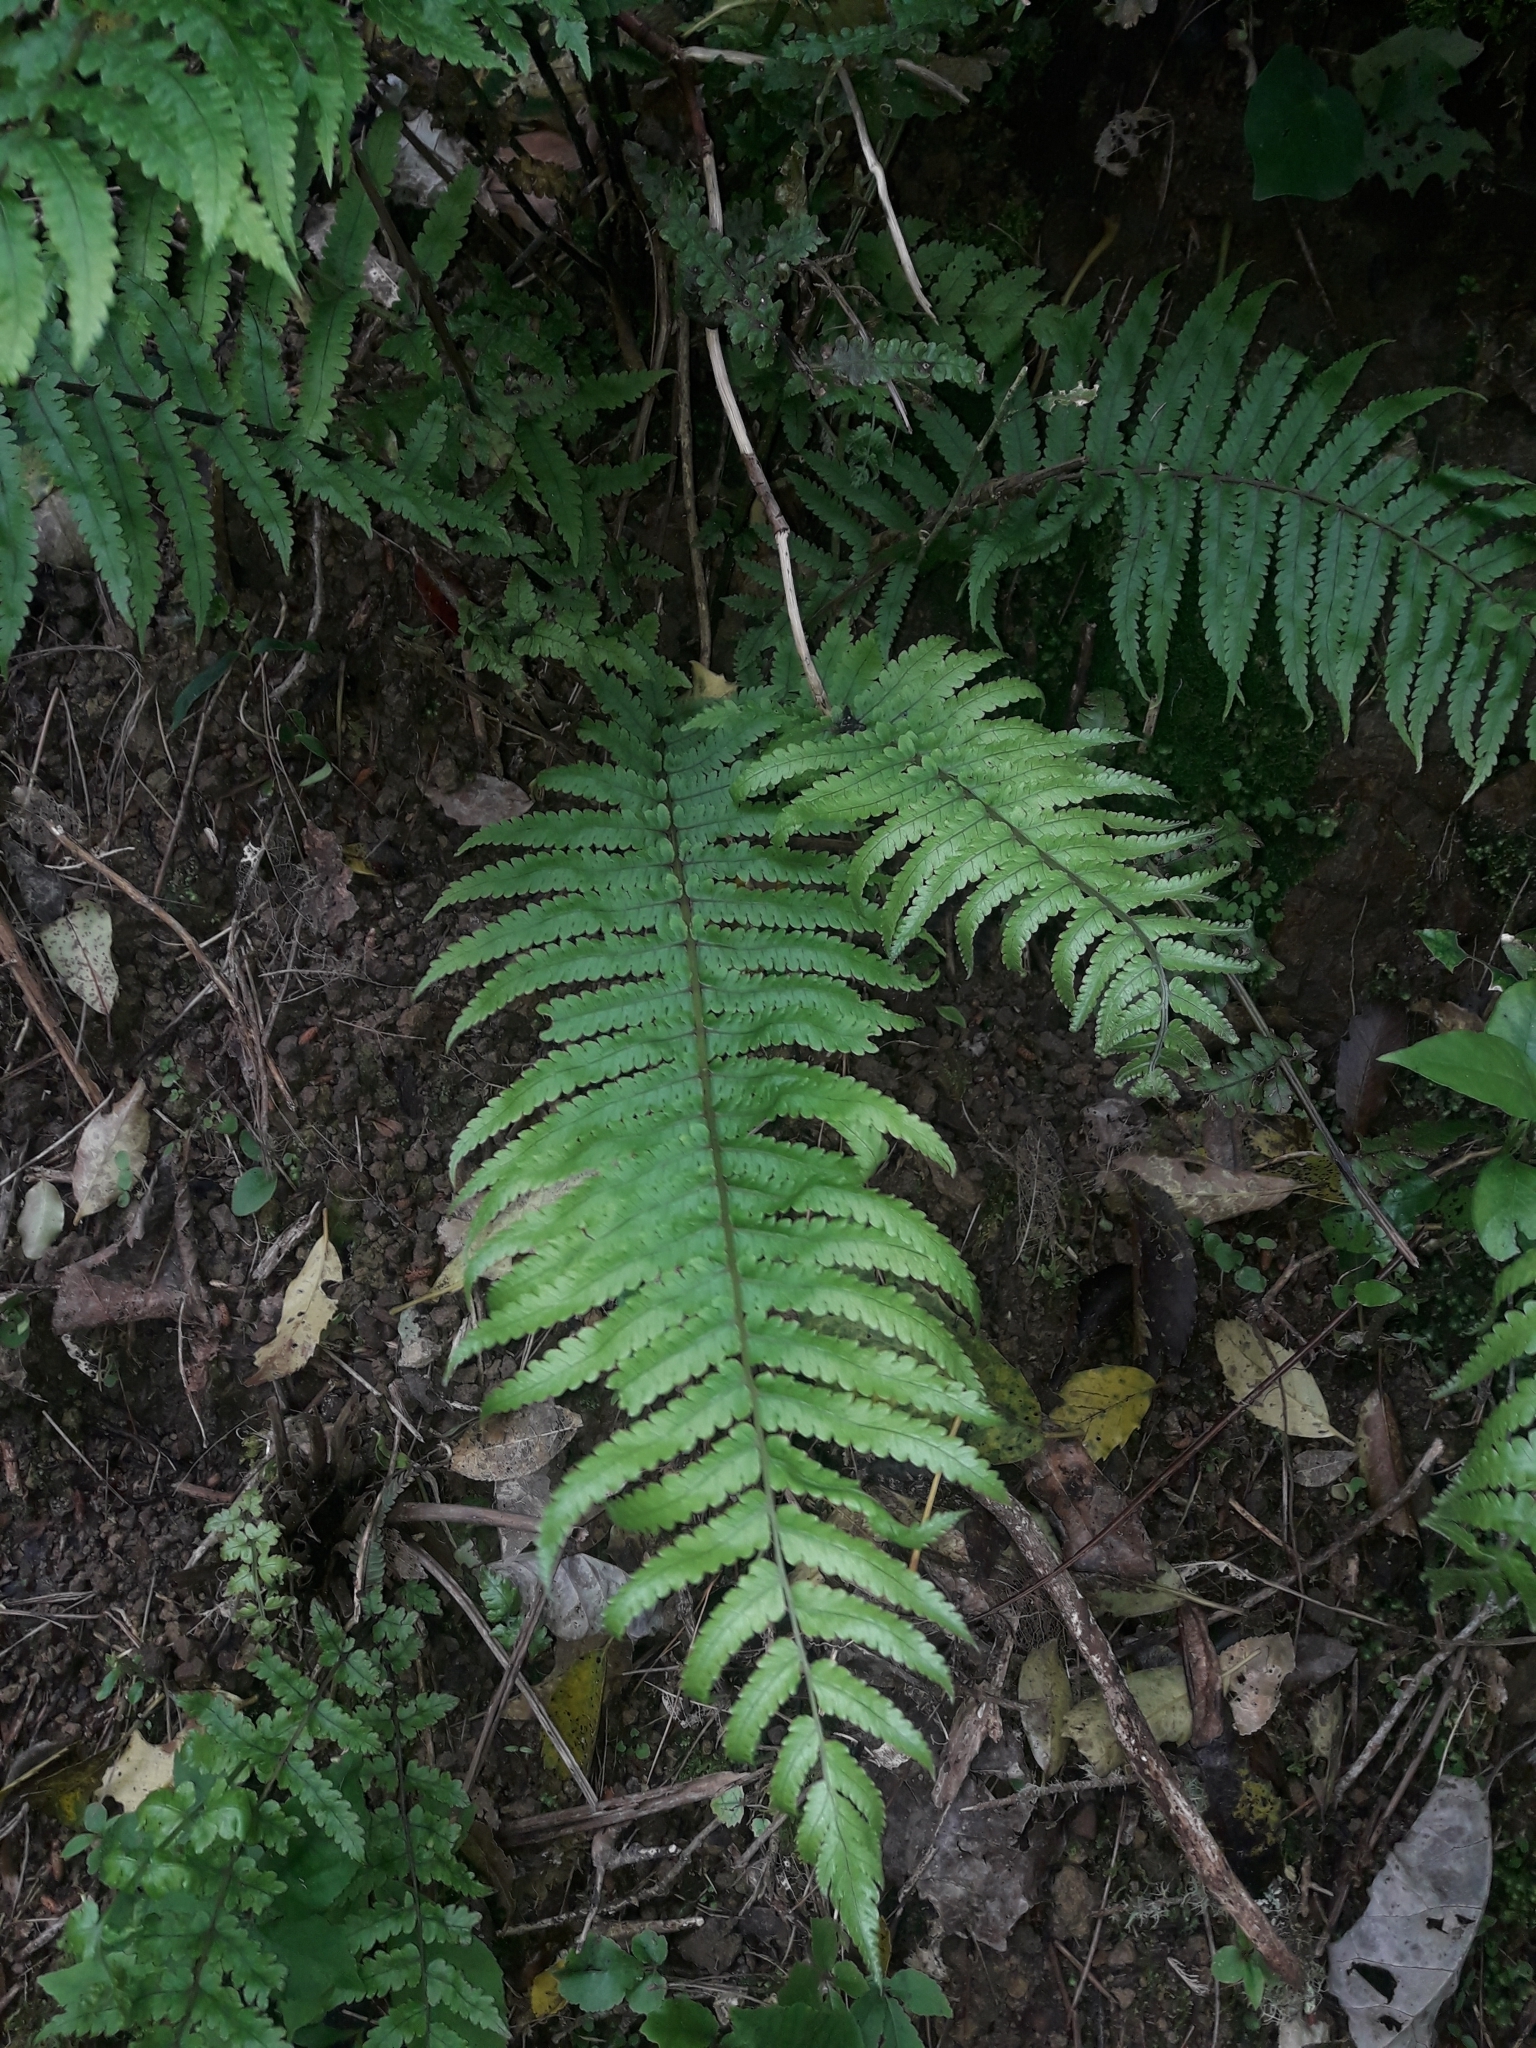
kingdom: Plantae
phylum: Tracheophyta
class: Polypodiopsida
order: Polypodiales
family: Thelypteridaceae
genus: Pakau
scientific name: Pakau pennigera
